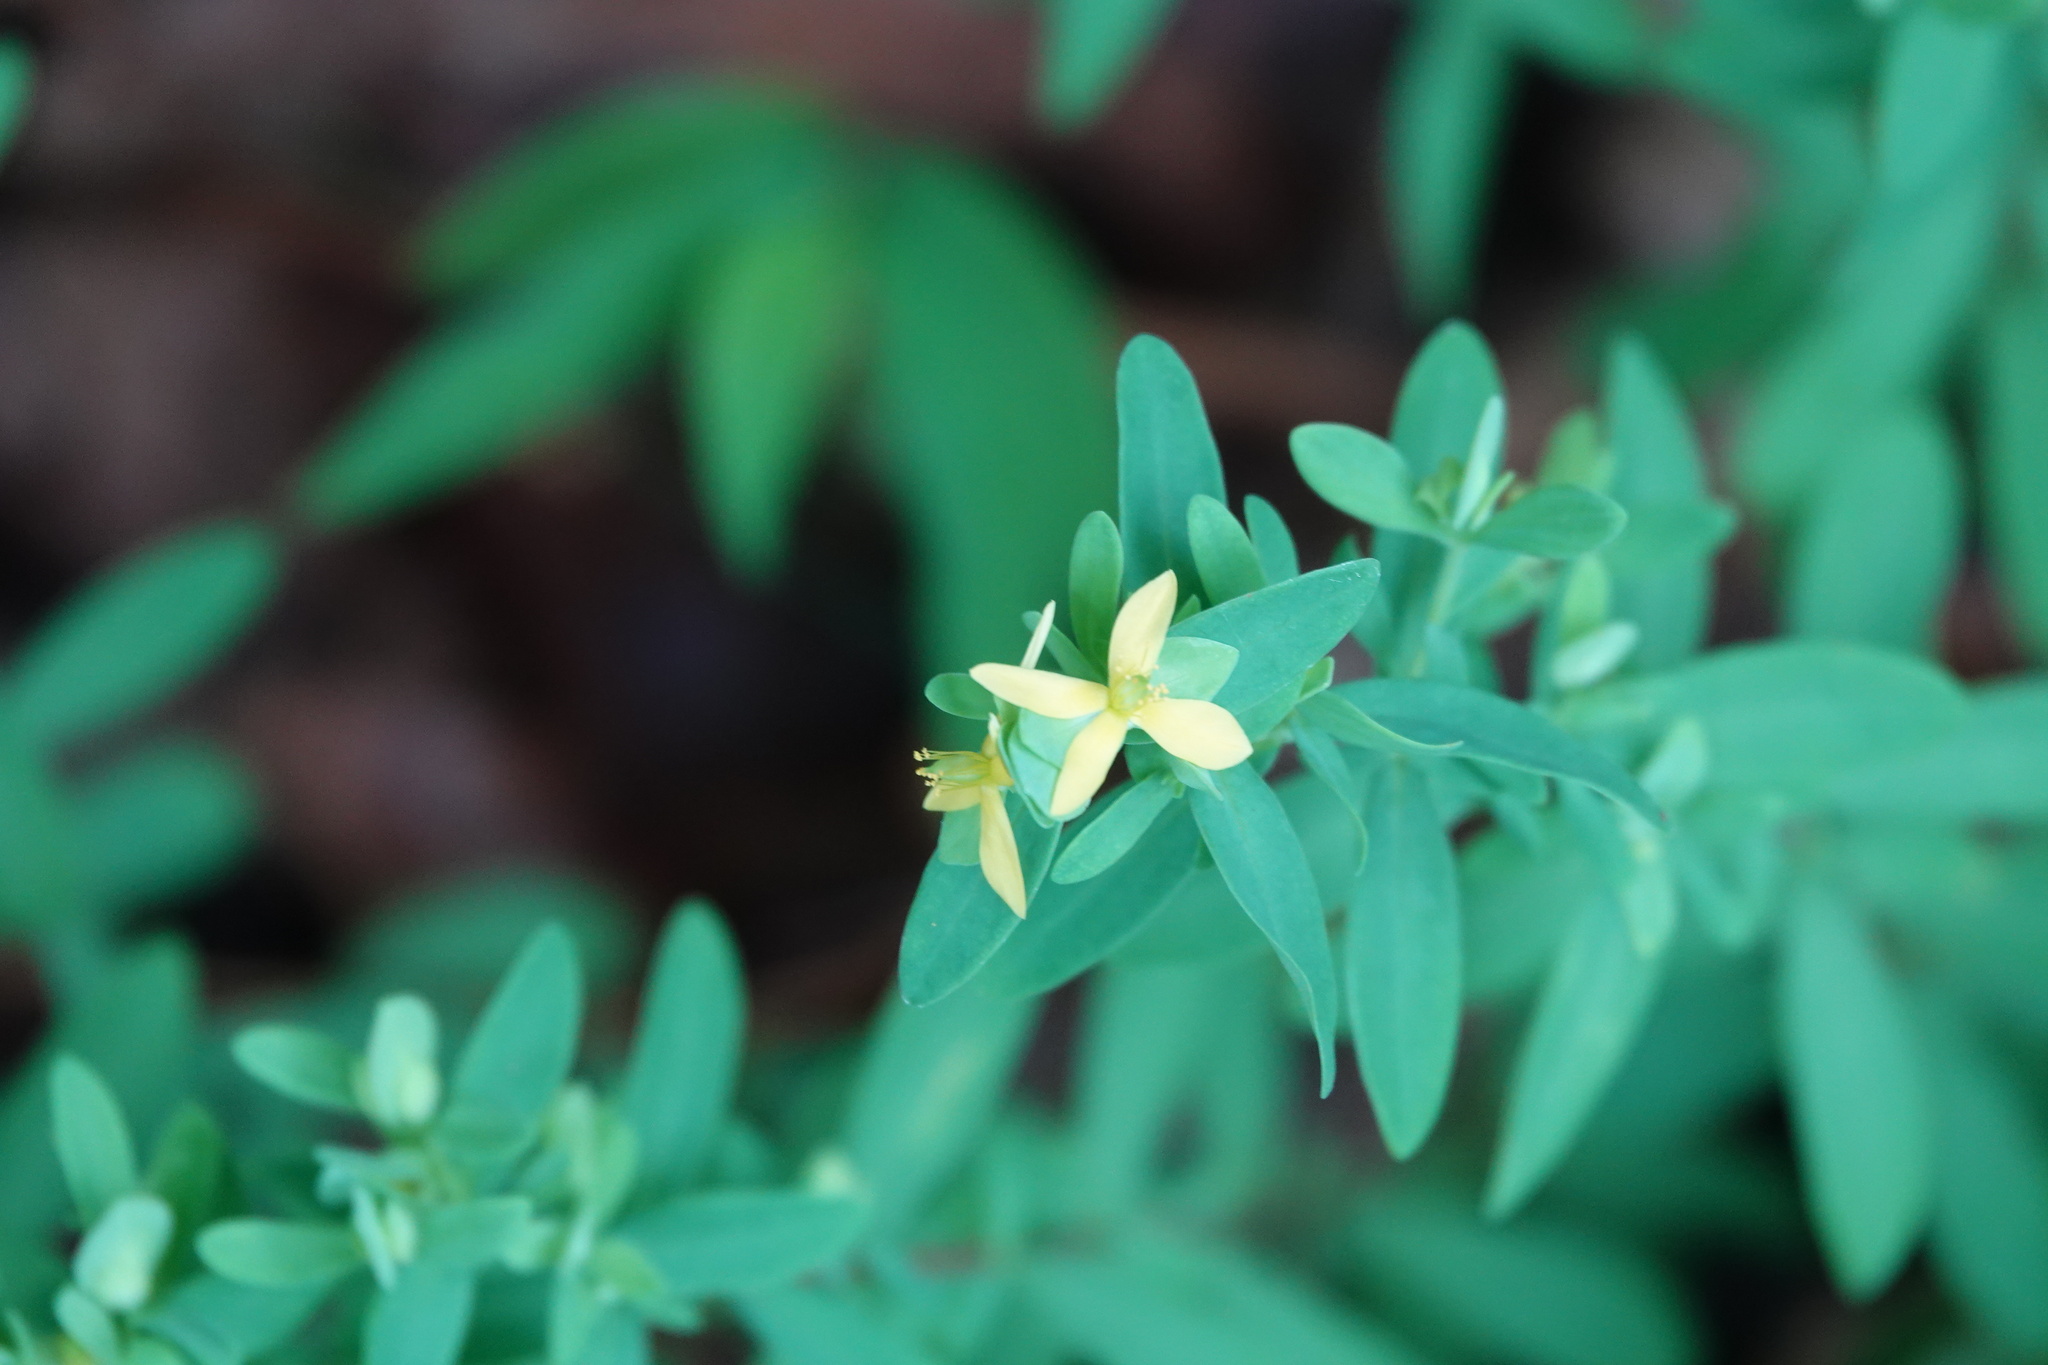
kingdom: Plantae
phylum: Tracheophyta
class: Magnoliopsida
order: Malpighiales
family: Hypericaceae
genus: Hypericum
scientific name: Hypericum hypericoides
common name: St. andrew's cross
